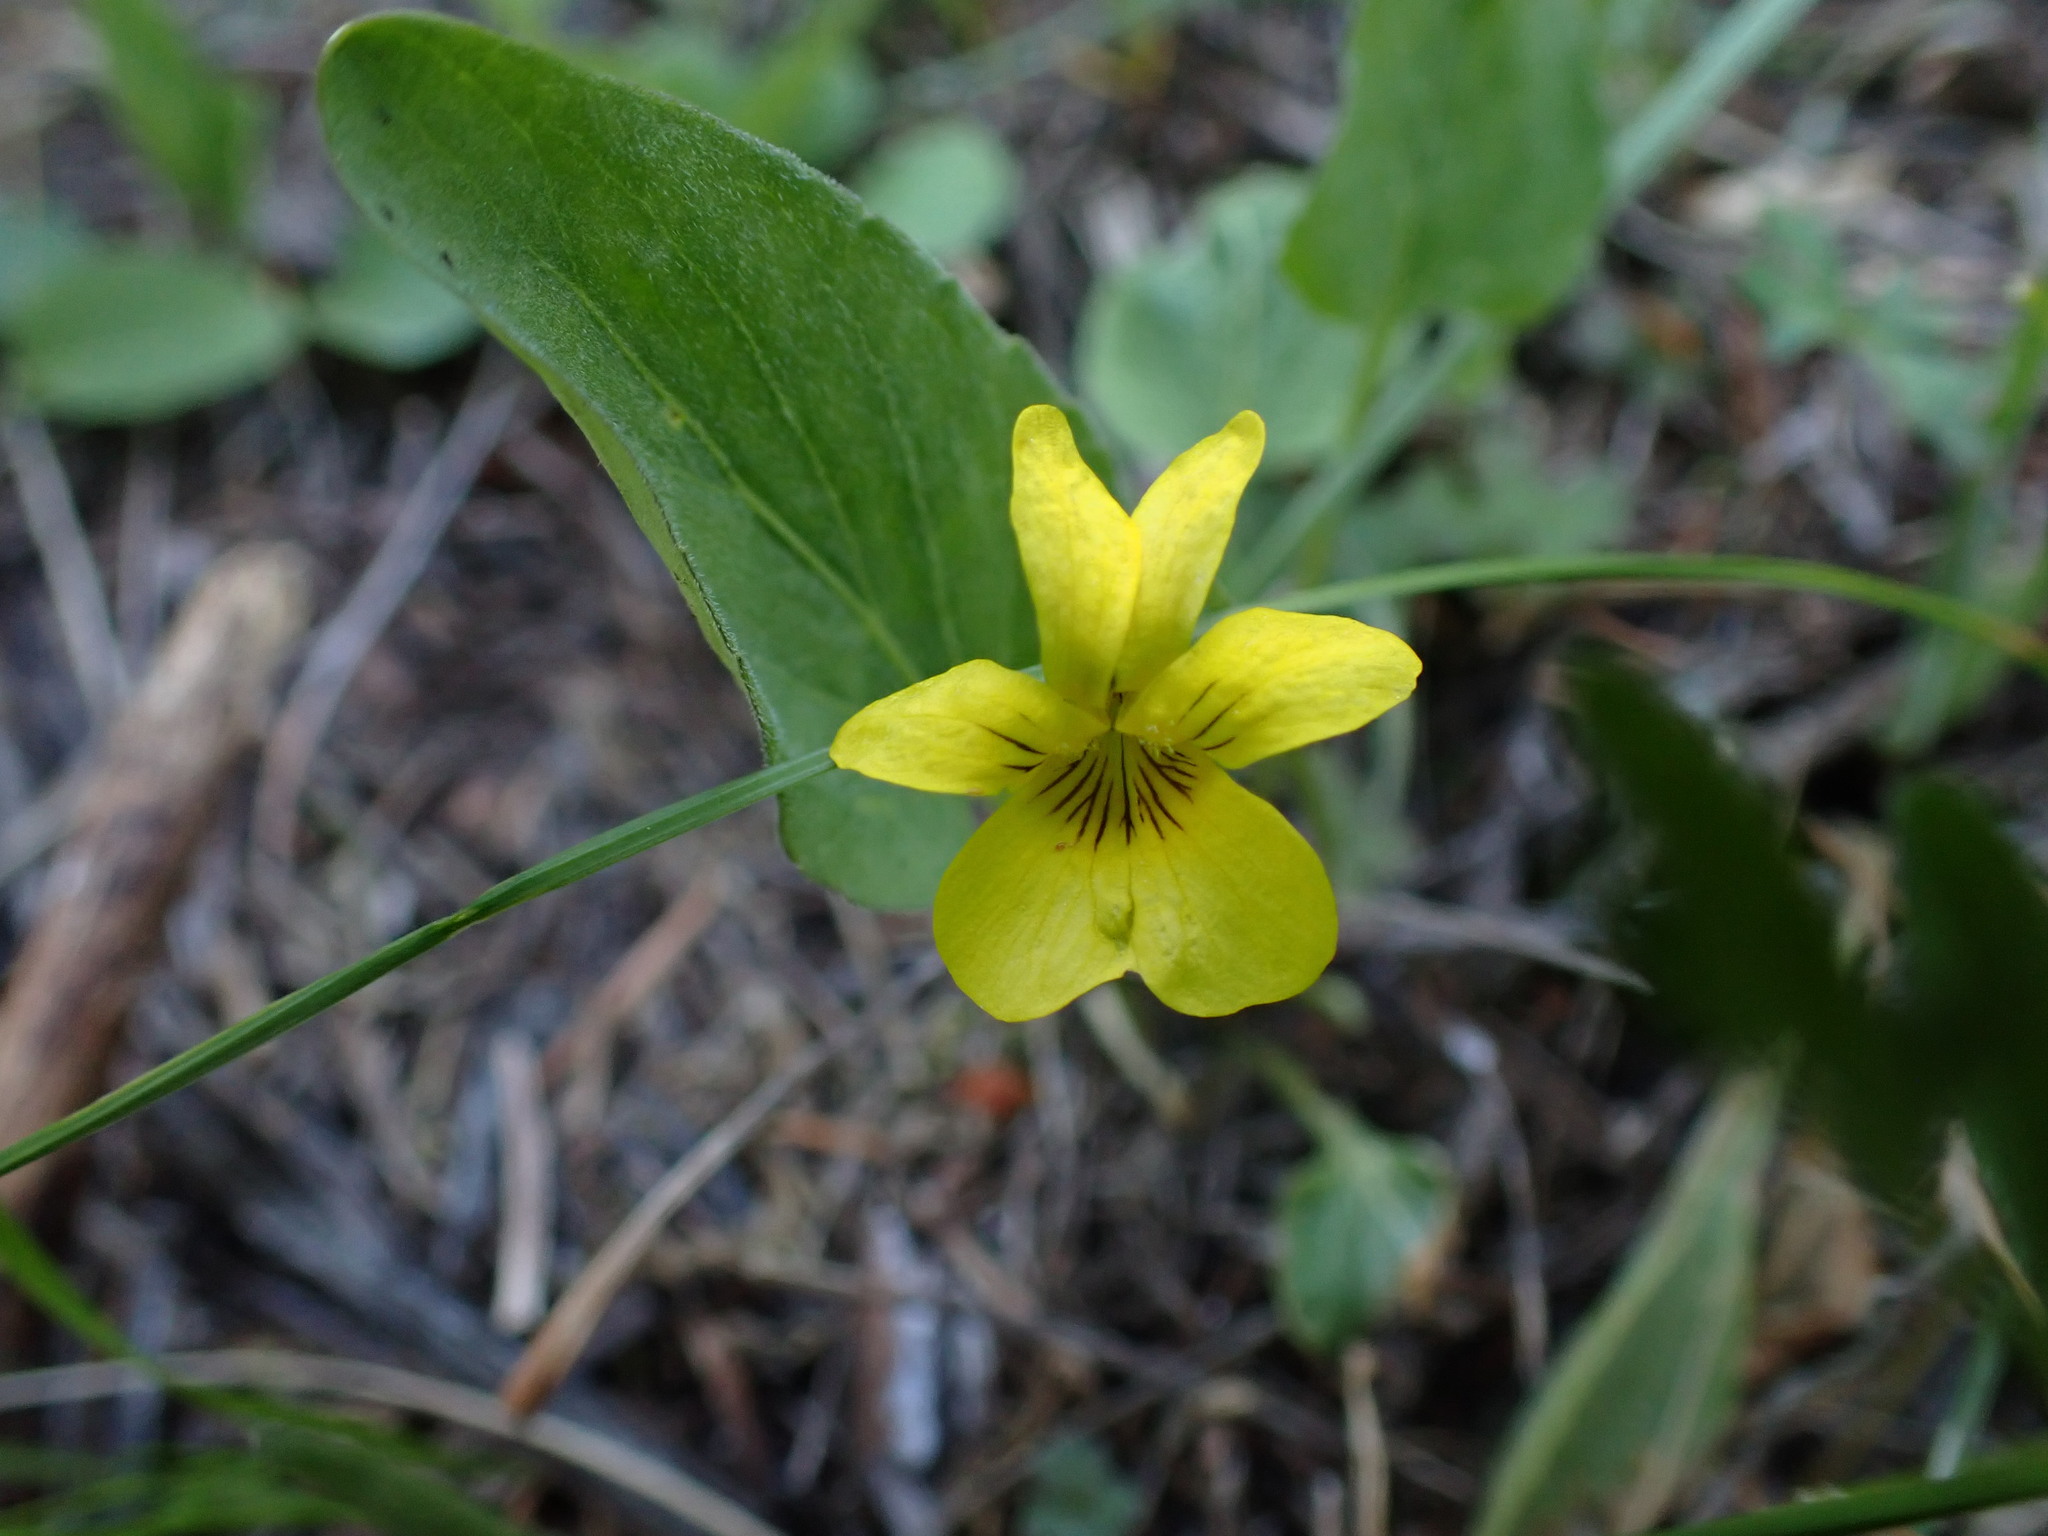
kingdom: Plantae
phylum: Tracheophyta
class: Magnoliopsida
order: Malpighiales
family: Violaceae
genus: Viola
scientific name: Viola vallicola
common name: Valley violet
